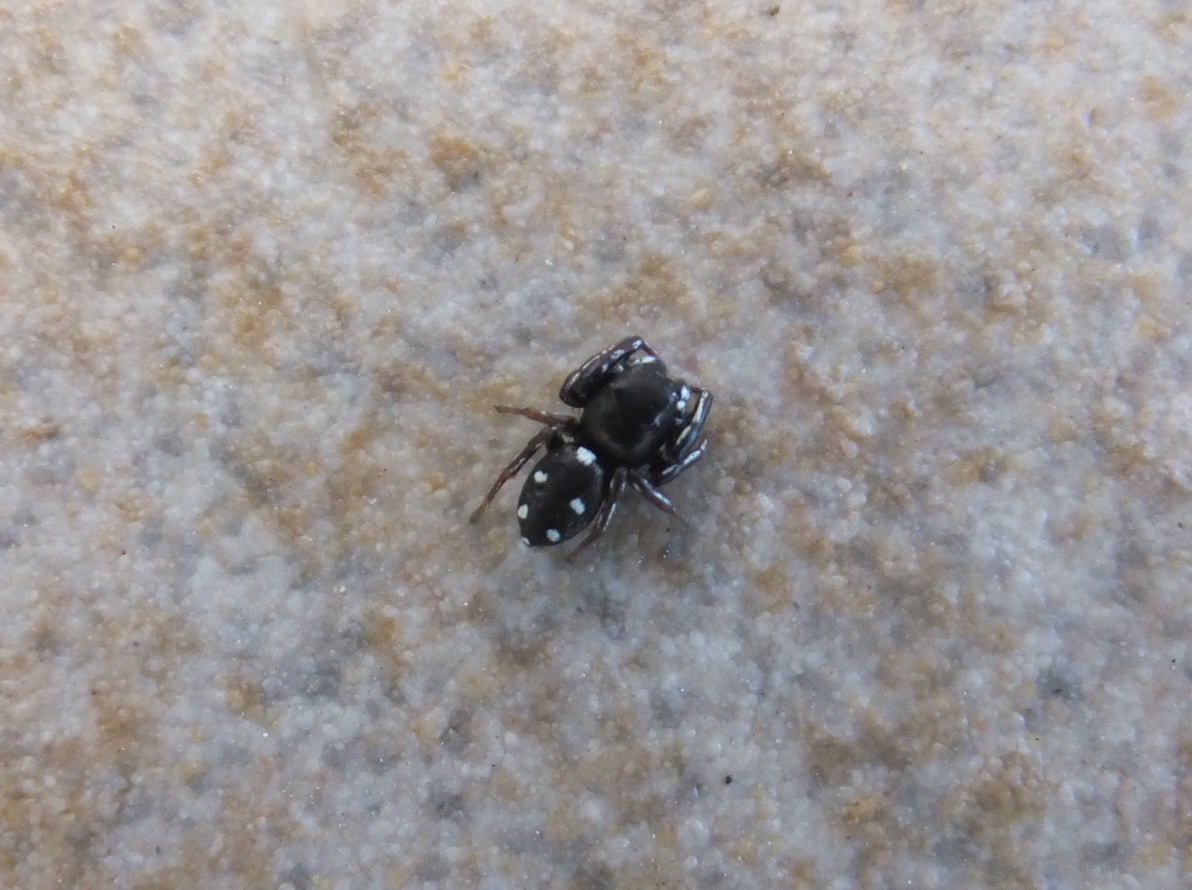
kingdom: Animalia
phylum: Arthropoda
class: Arachnida
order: Araneae
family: Salticidae
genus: Heliophanus
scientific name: Heliophanus lineiventris
